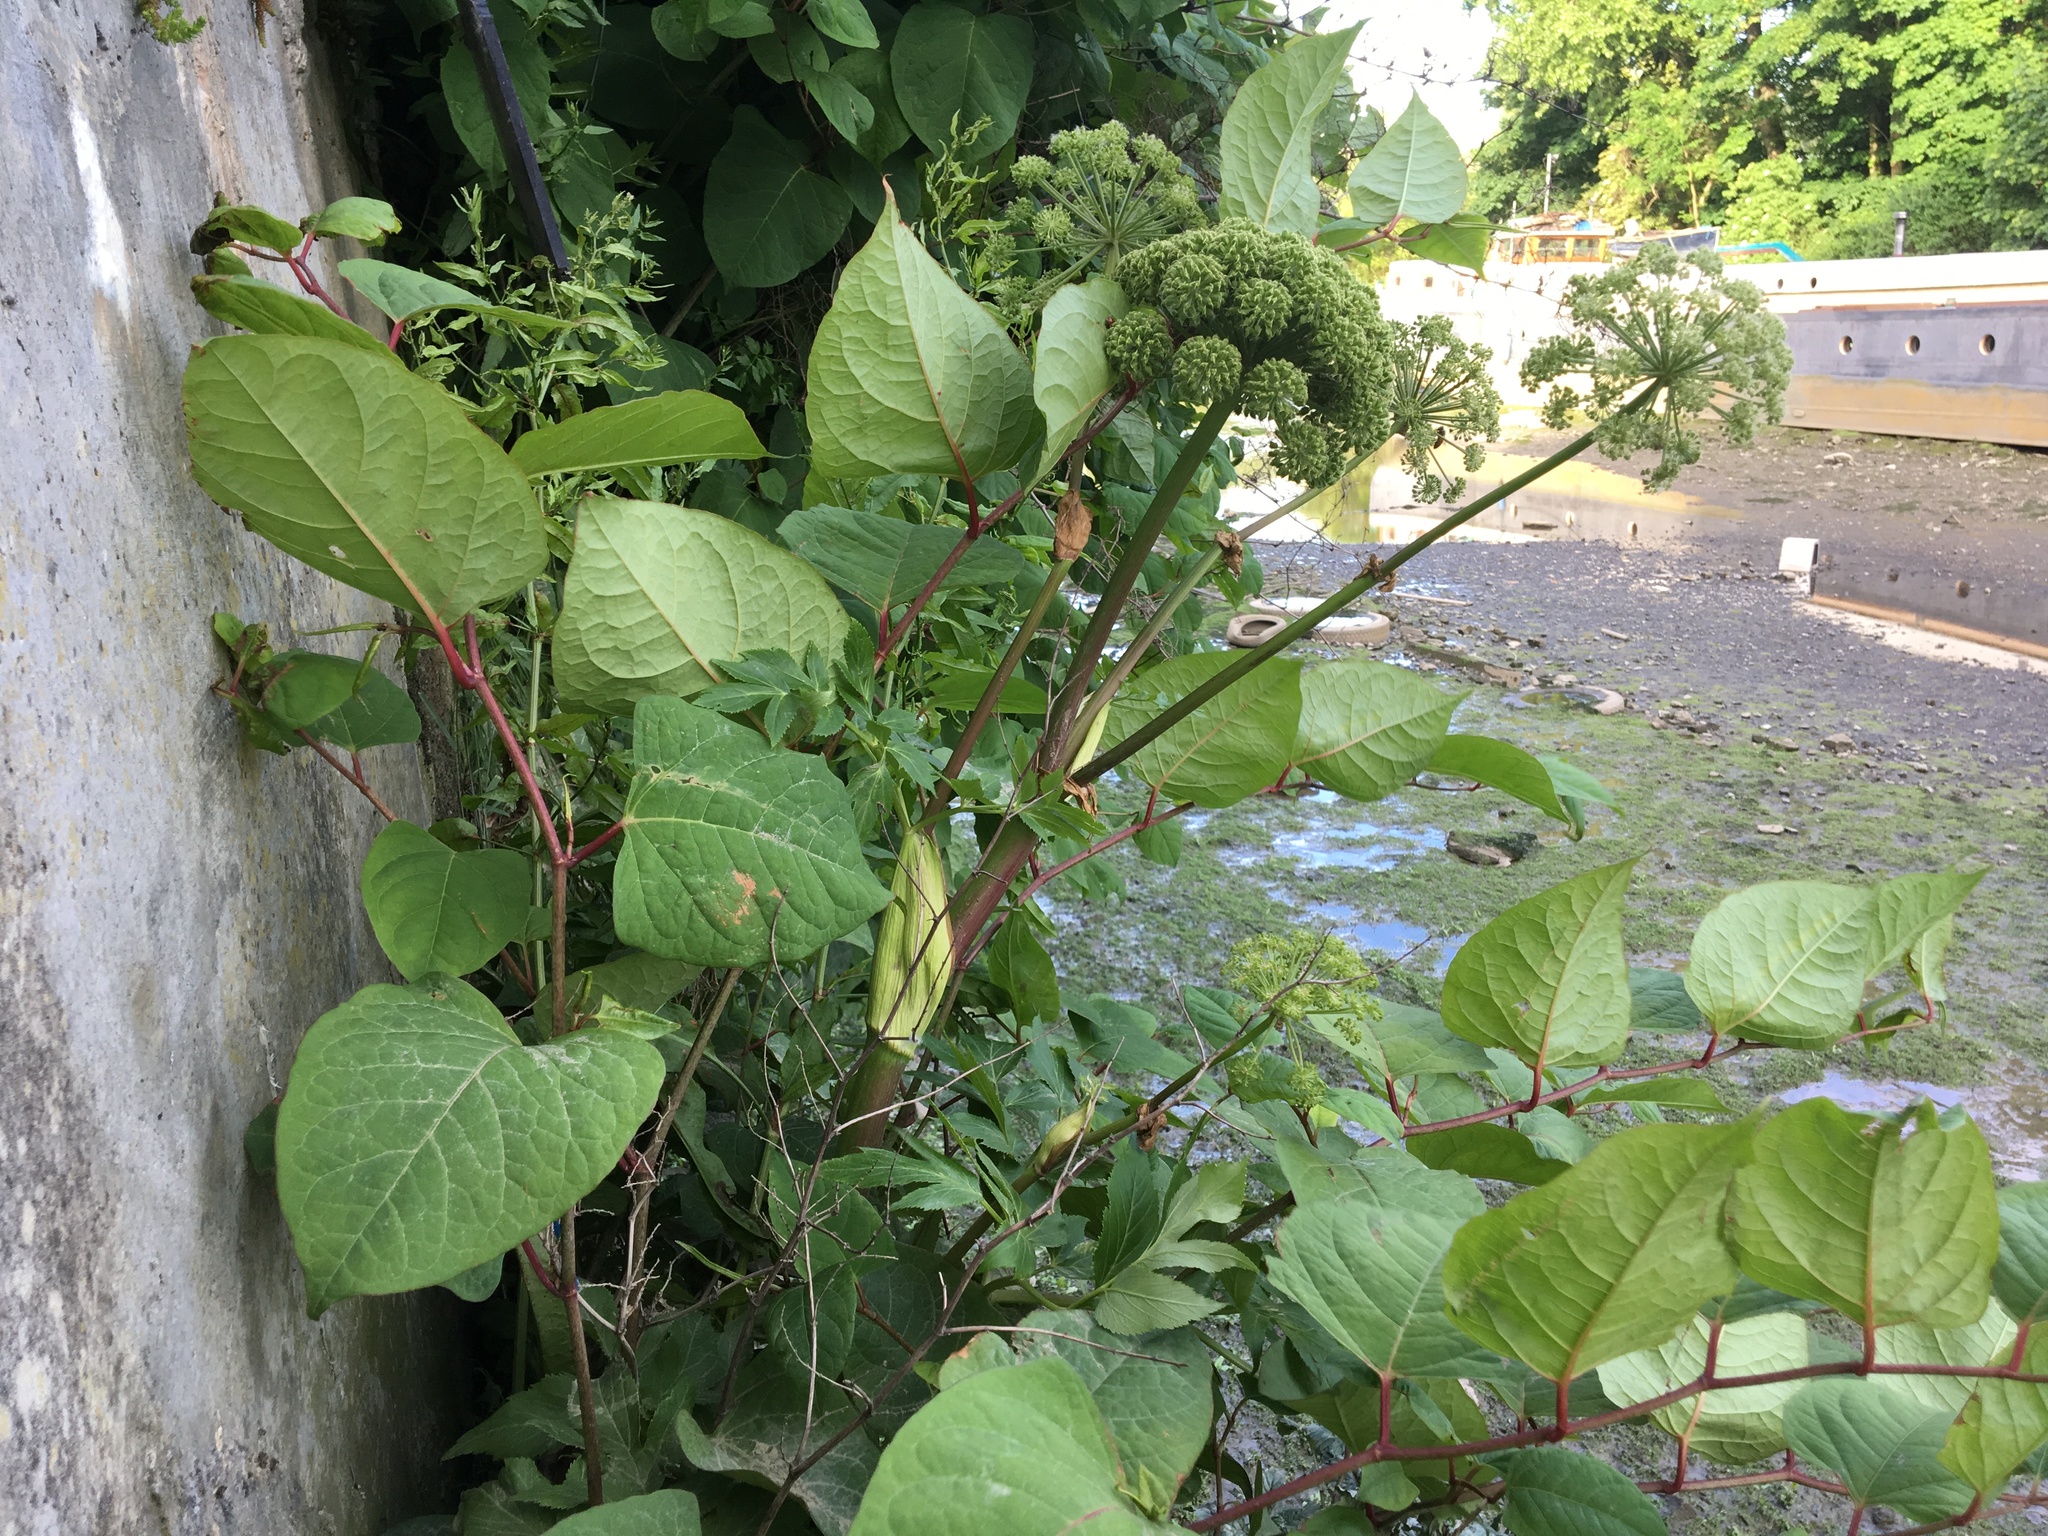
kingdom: Plantae
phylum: Tracheophyta
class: Magnoliopsida
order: Caryophyllales
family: Polygonaceae
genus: Reynoutria
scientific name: Reynoutria japonica
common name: Japanese knotweed
